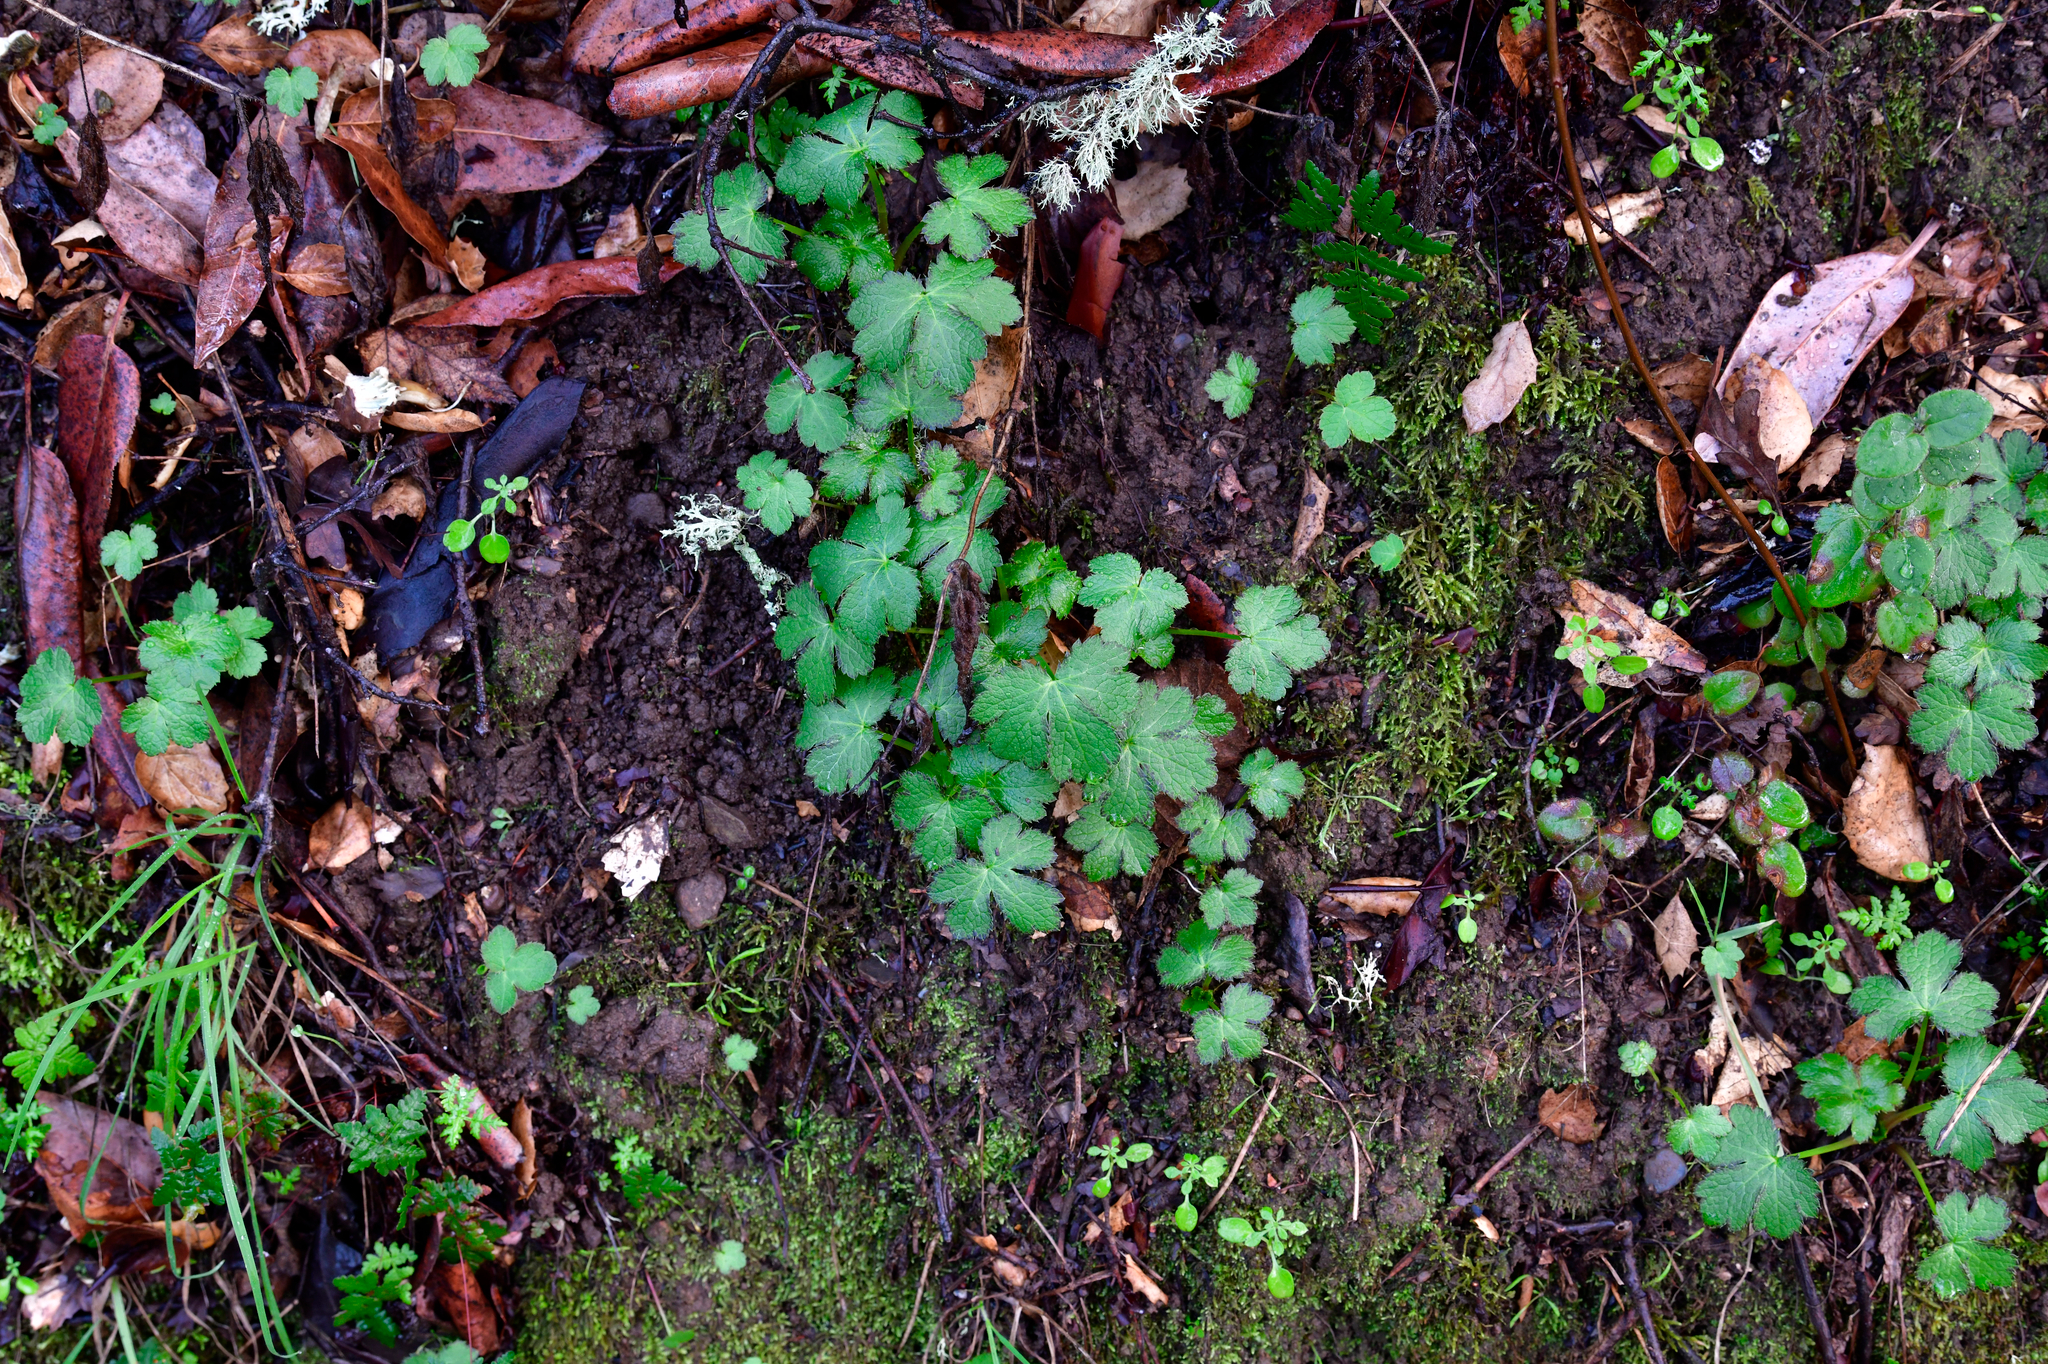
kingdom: Plantae
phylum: Tracheophyta
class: Magnoliopsida
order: Apiales
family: Apiaceae
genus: Sanicula
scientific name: Sanicula crassicaulis
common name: Western snakeroot
